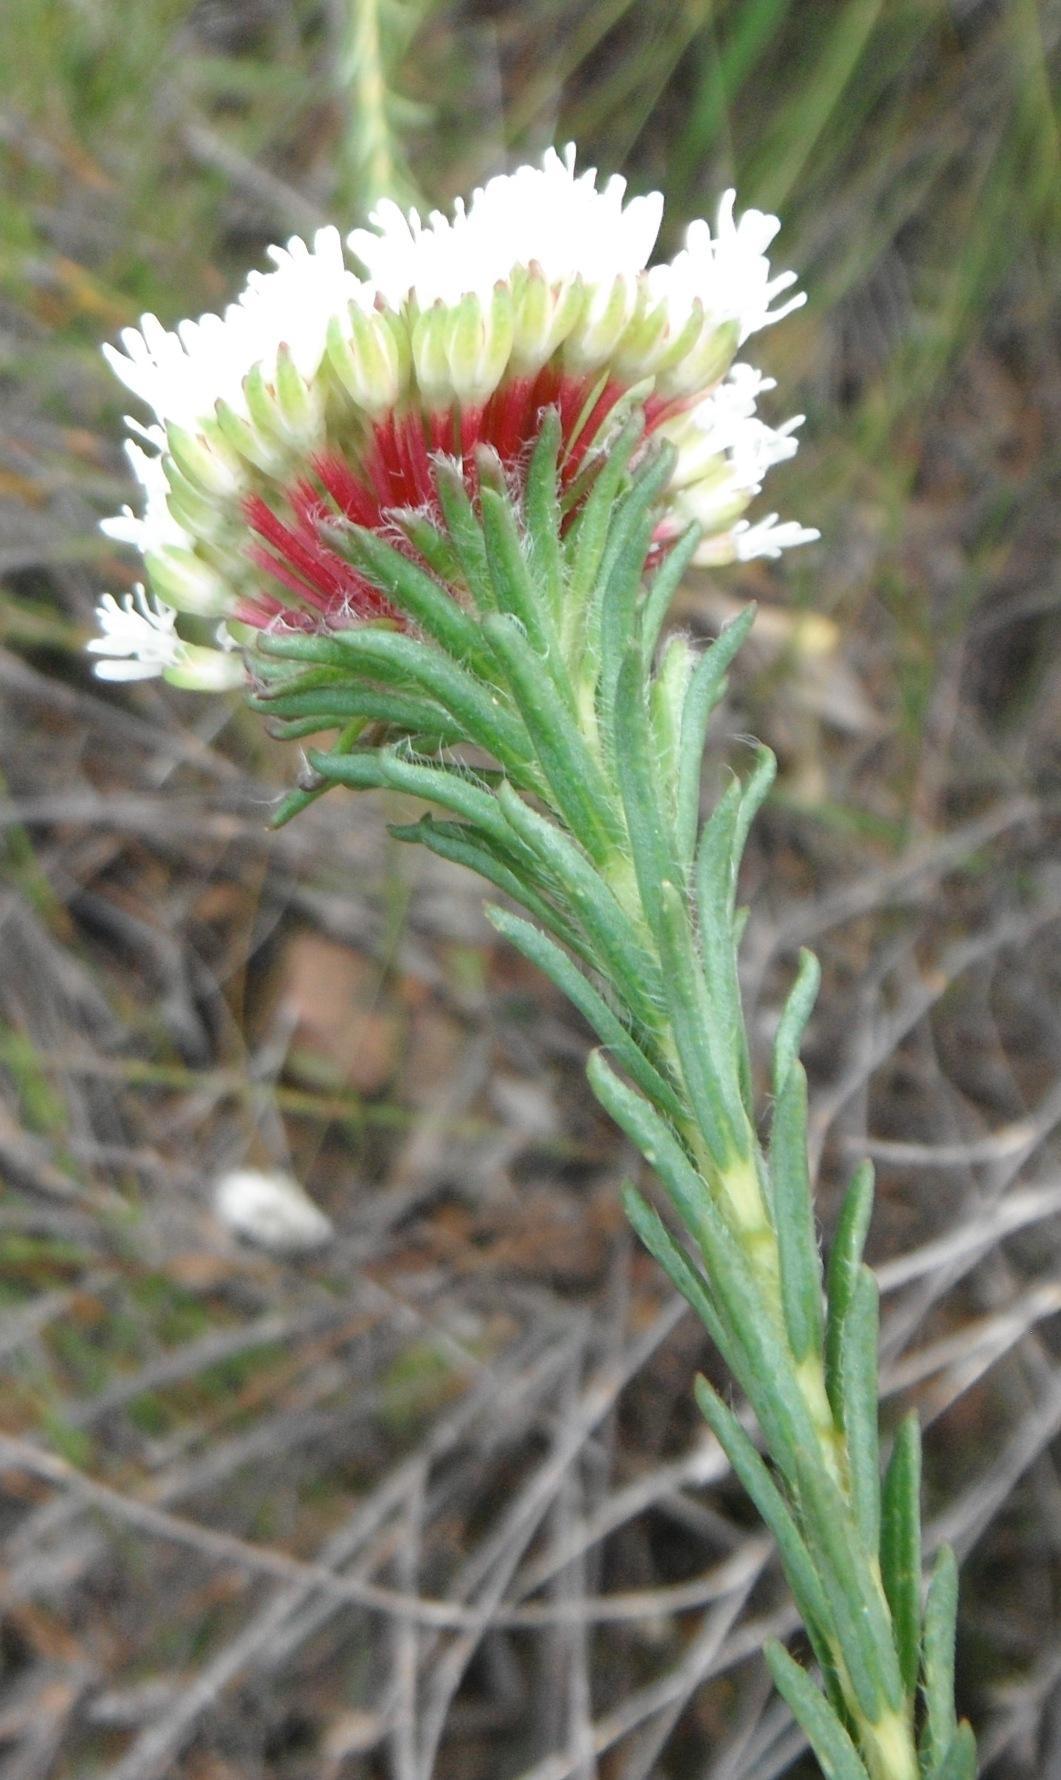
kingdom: Plantae
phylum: Tracheophyta
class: Magnoliopsida
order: Sapindales
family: Rutaceae
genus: Agathosma
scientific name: Agathosma bifida
